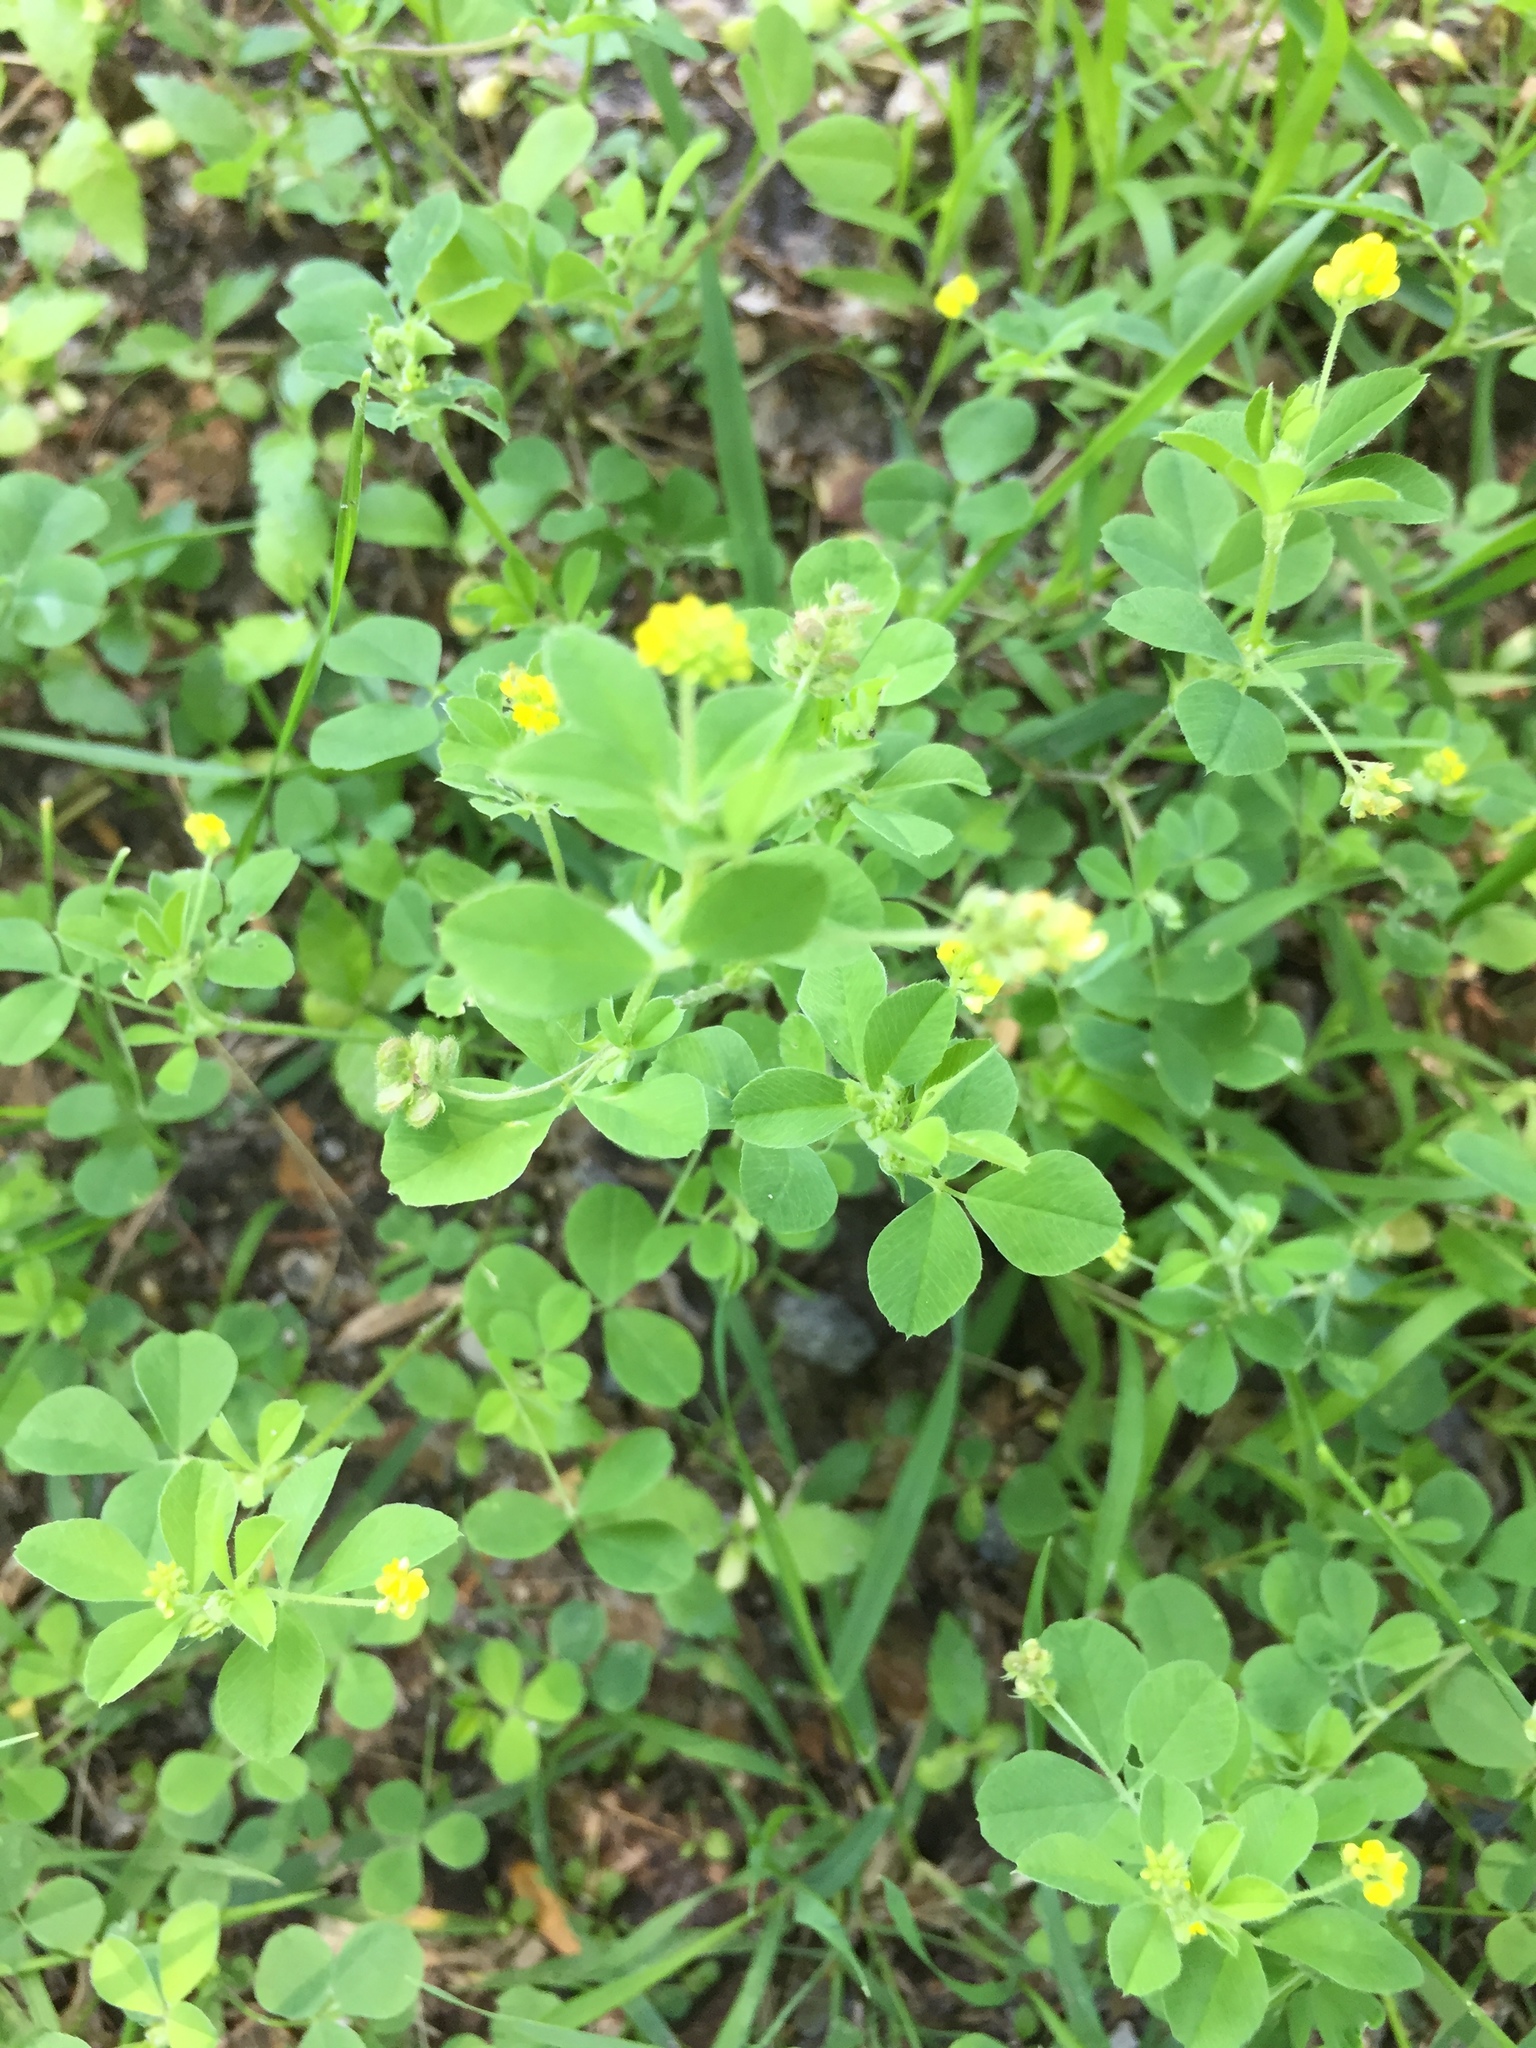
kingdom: Plantae
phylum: Tracheophyta
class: Magnoliopsida
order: Fabales
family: Fabaceae
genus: Medicago
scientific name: Medicago lupulina
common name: Black medick
